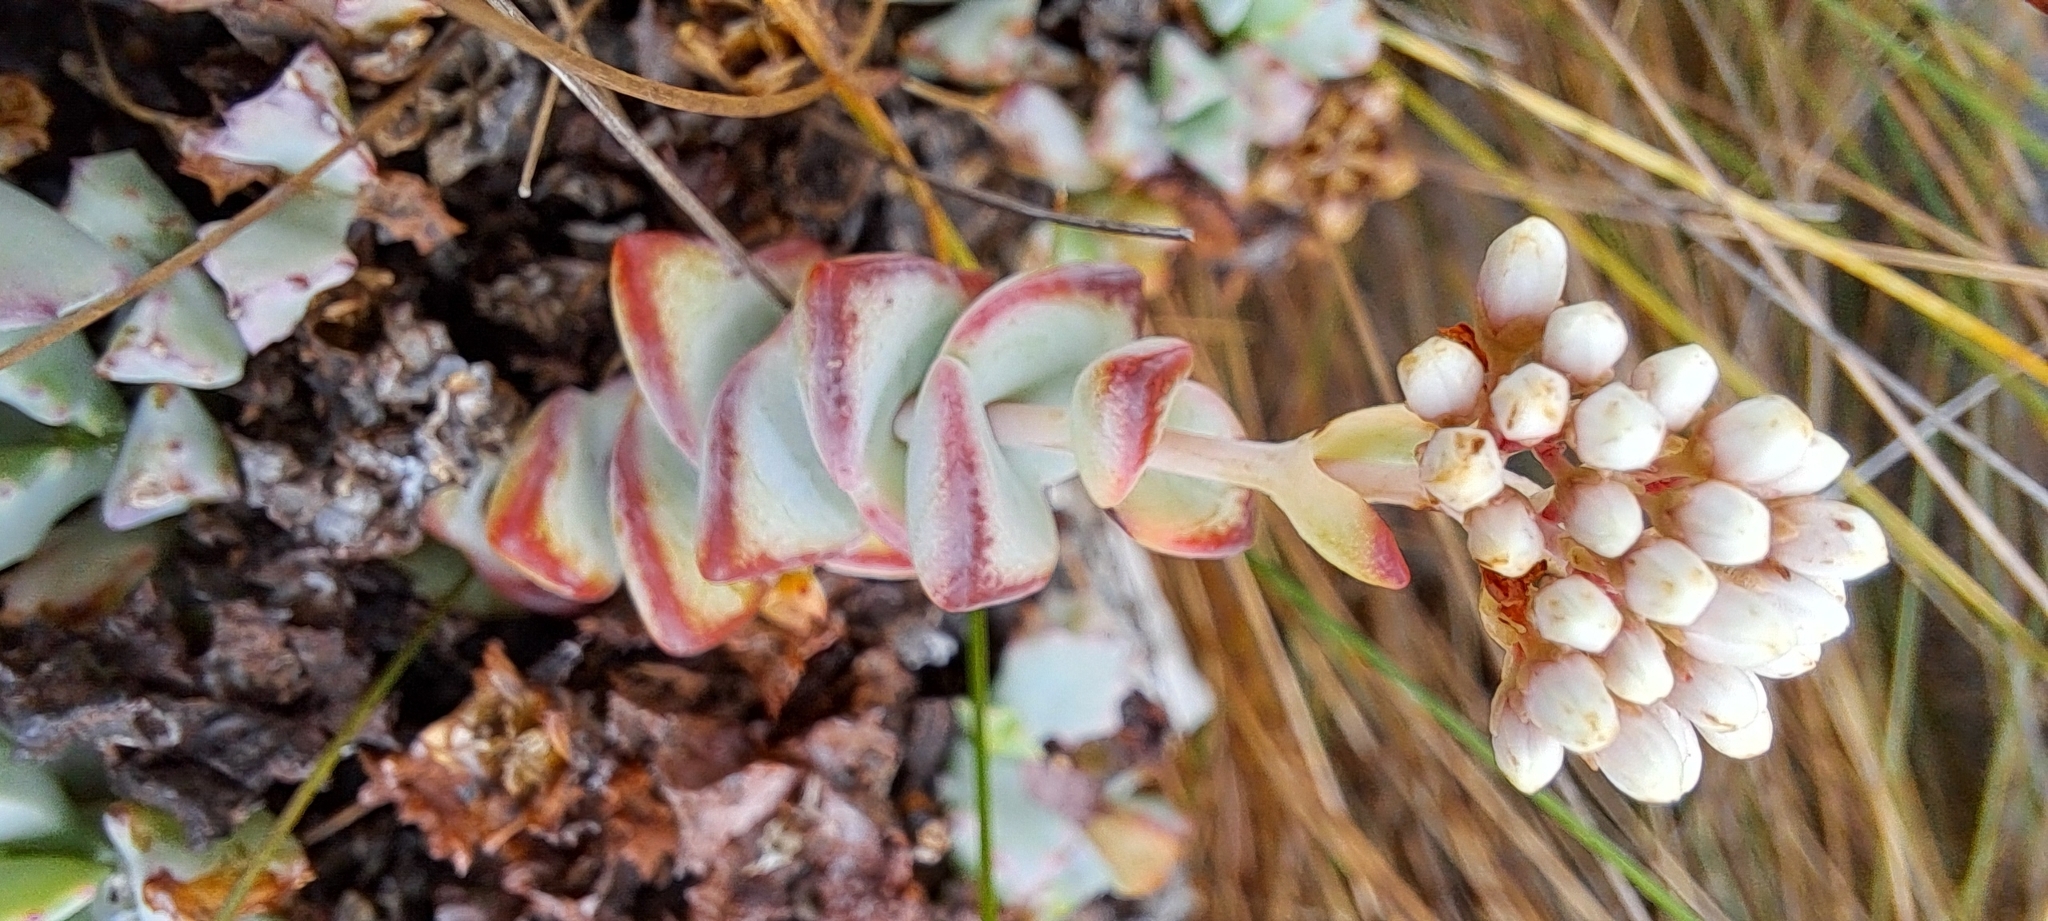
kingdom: Plantae
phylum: Tracheophyta
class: Magnoliopsida
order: Saxifragales
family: Crassulaceae
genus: Crassula
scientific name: Crassula rupestris
